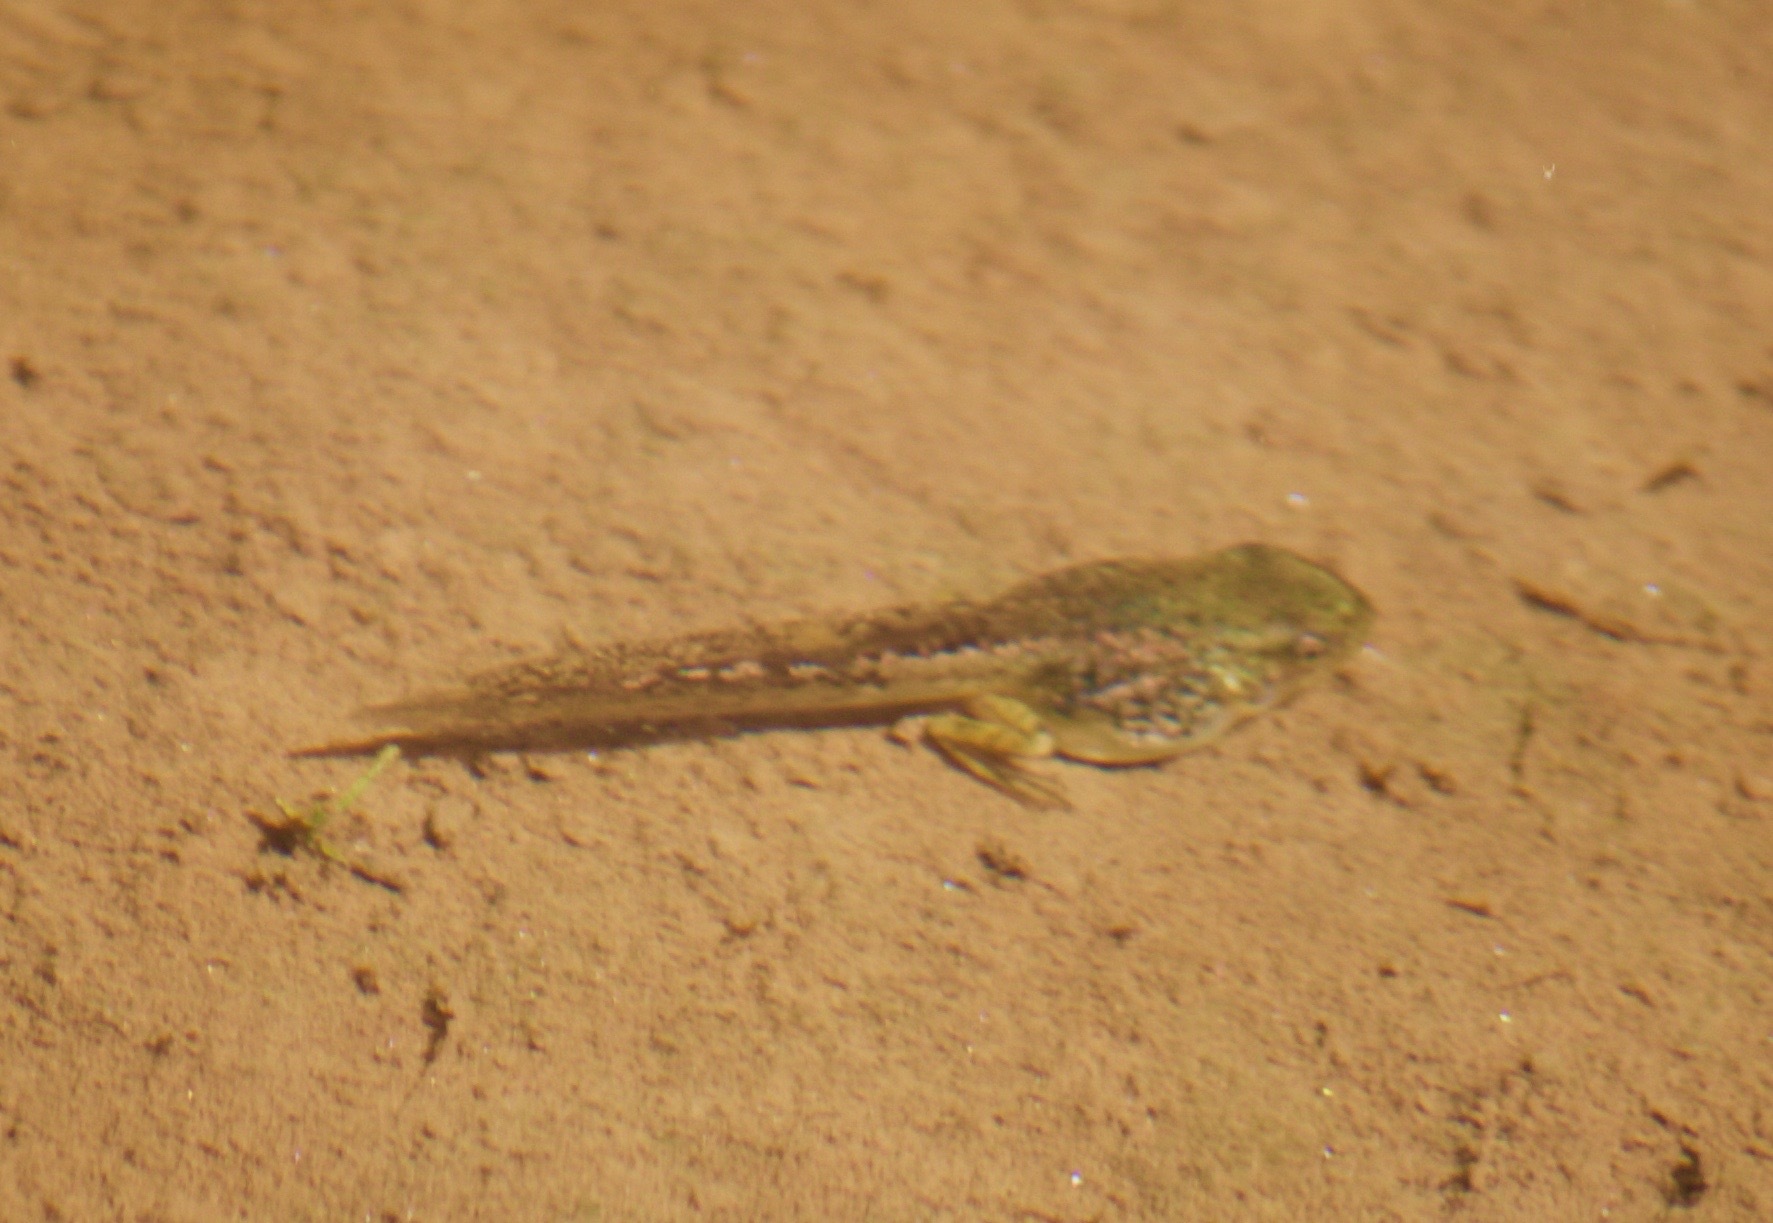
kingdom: Animalia
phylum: Chordata
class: Amphibia
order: Anura
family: Hylidae
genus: Pseudacris
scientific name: Pseudacris regilla
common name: Pacific chorus frog
